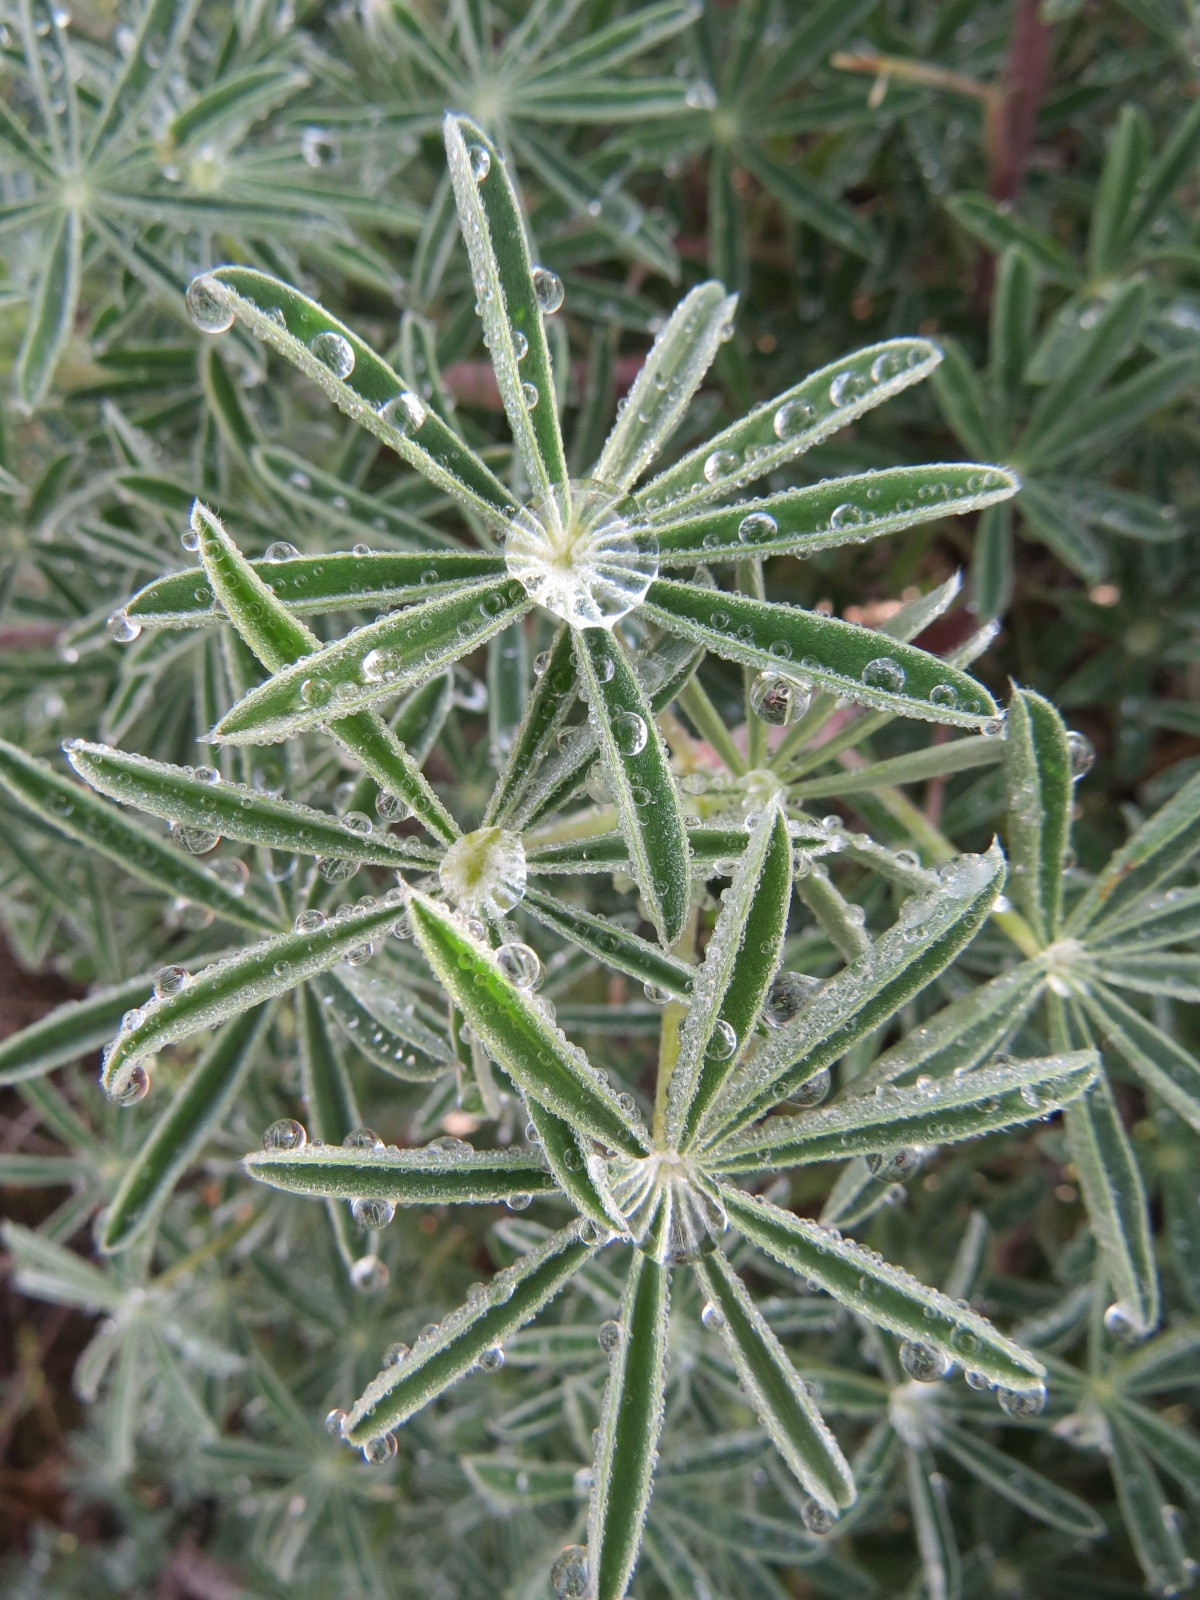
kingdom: Plantae
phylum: Tracheophyta
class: Magnoliopsida
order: Fabales
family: Fabaceae
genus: Lupinus
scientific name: Lupinus arboreus
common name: Yellow bush lupine
